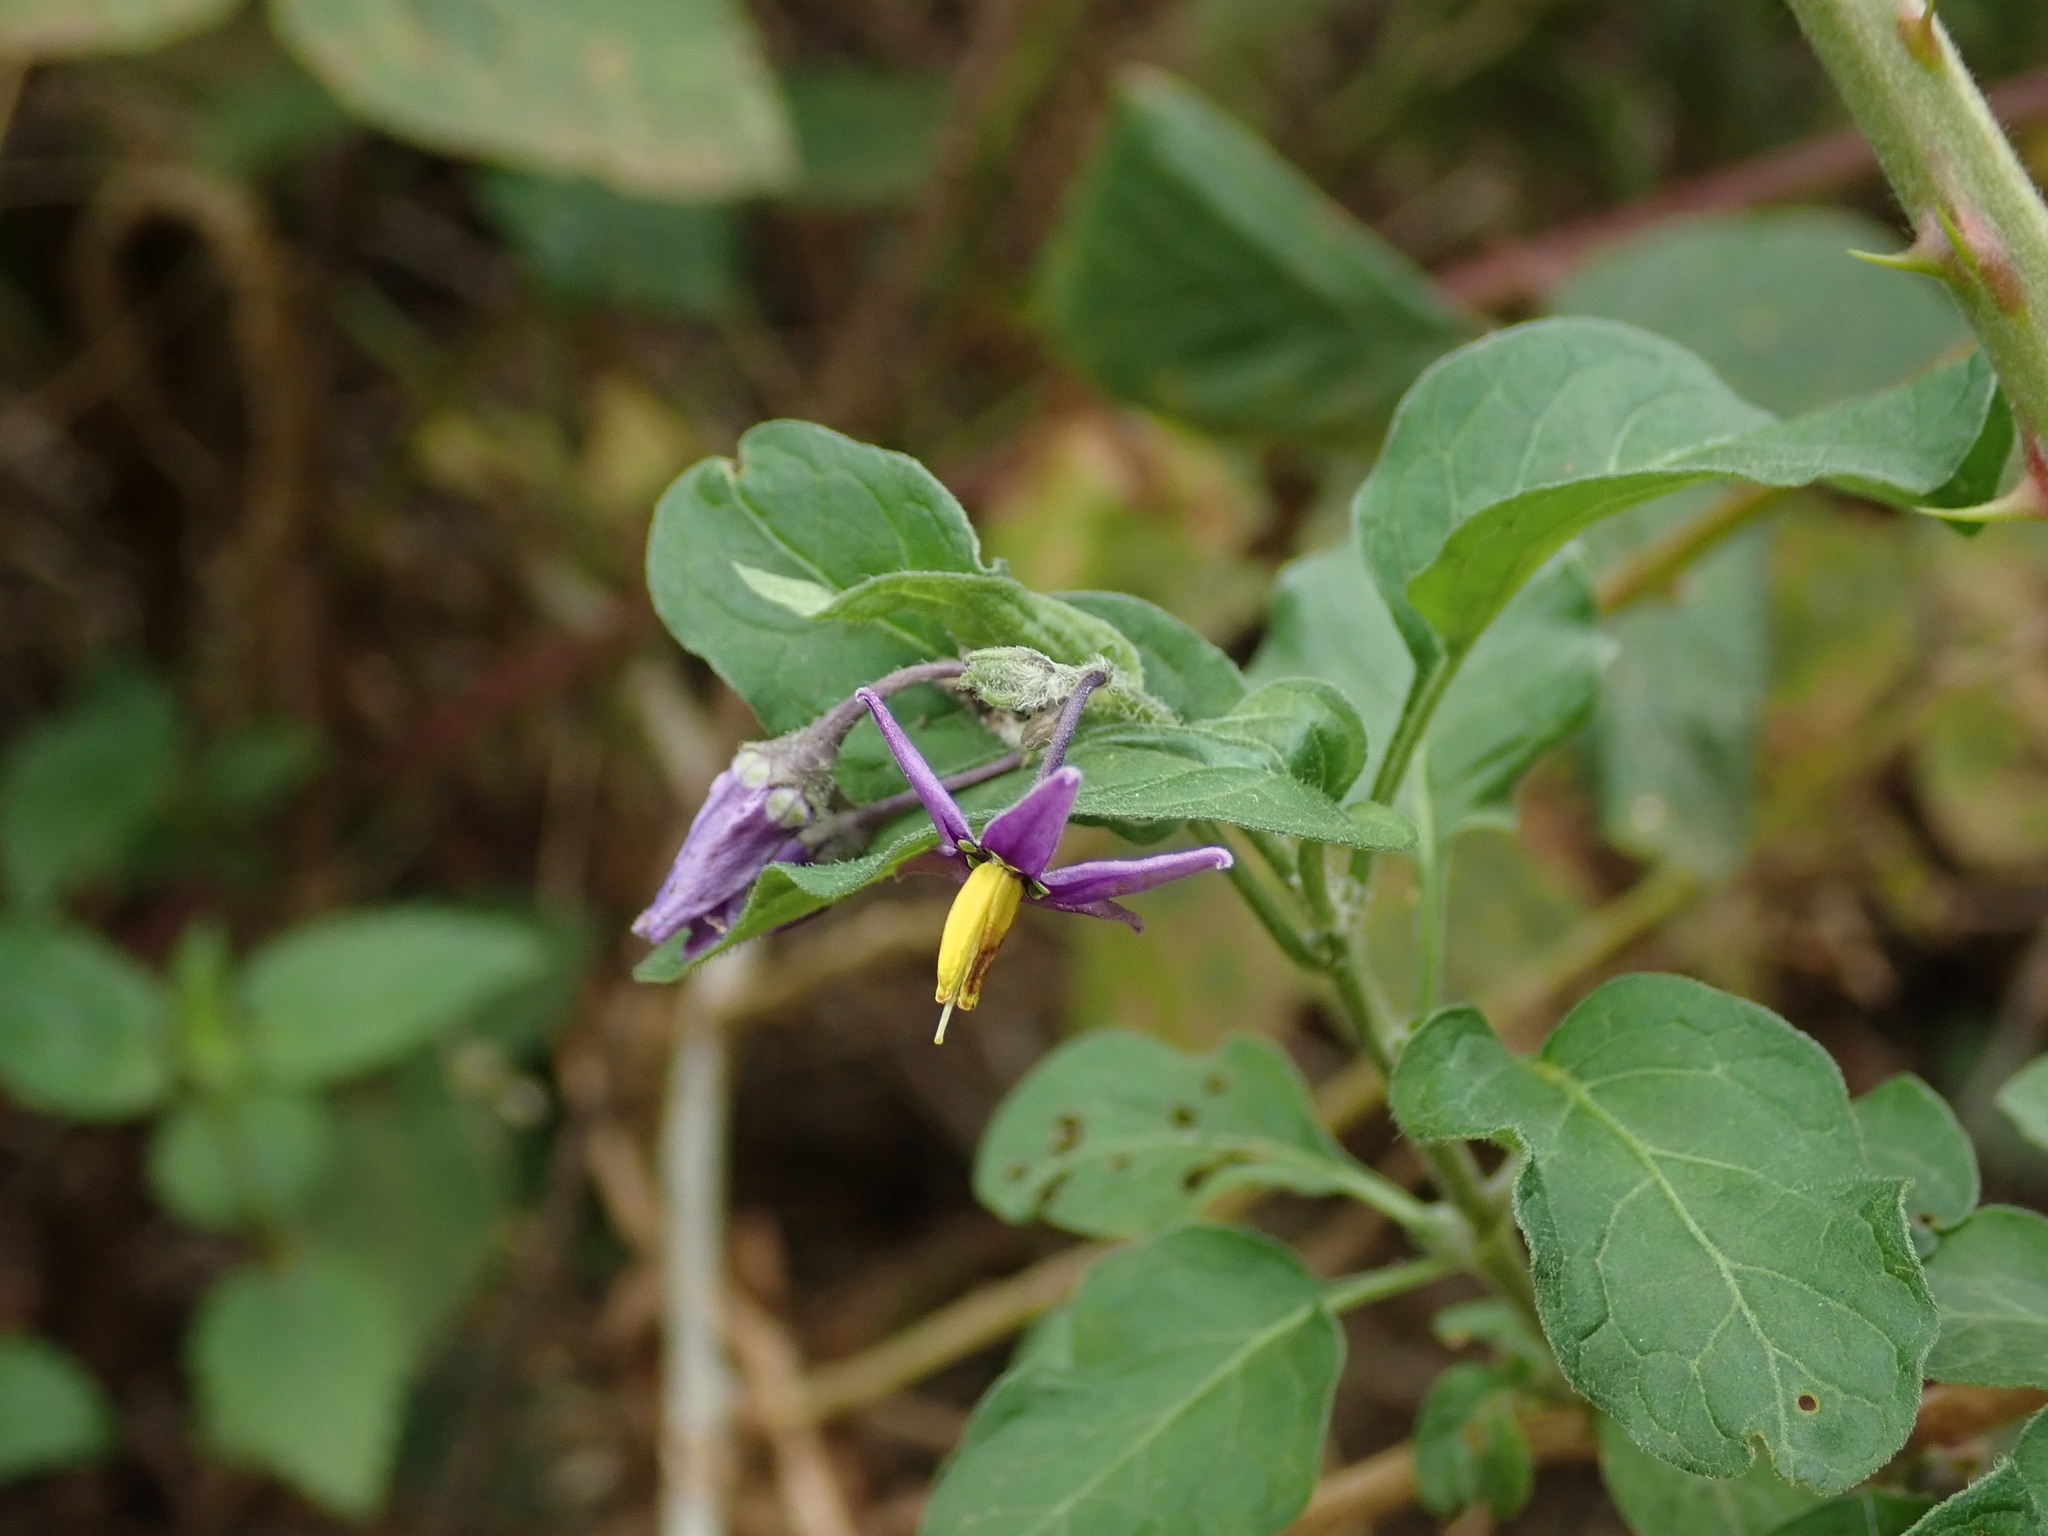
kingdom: Plantae
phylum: Tracheophyta
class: Magnoliopsida
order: Solanales
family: Solanaceae
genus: Solanum
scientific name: Solanum dulcamara
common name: Climbing nightshade
